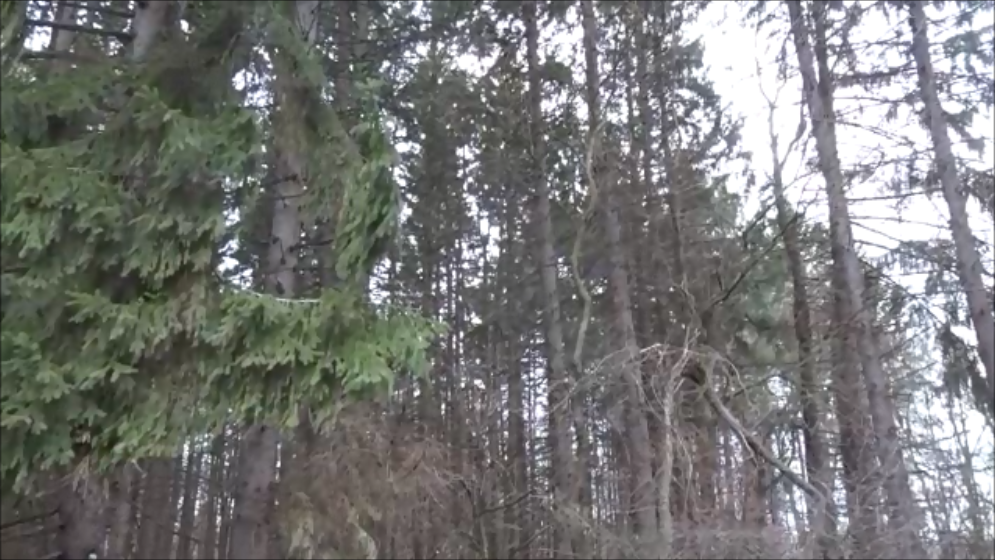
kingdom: Animalia
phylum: Chordata
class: Aves
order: Passeriformes
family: Corvidae
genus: Corvus
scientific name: Corvus brachyrhynchos
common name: American crow
